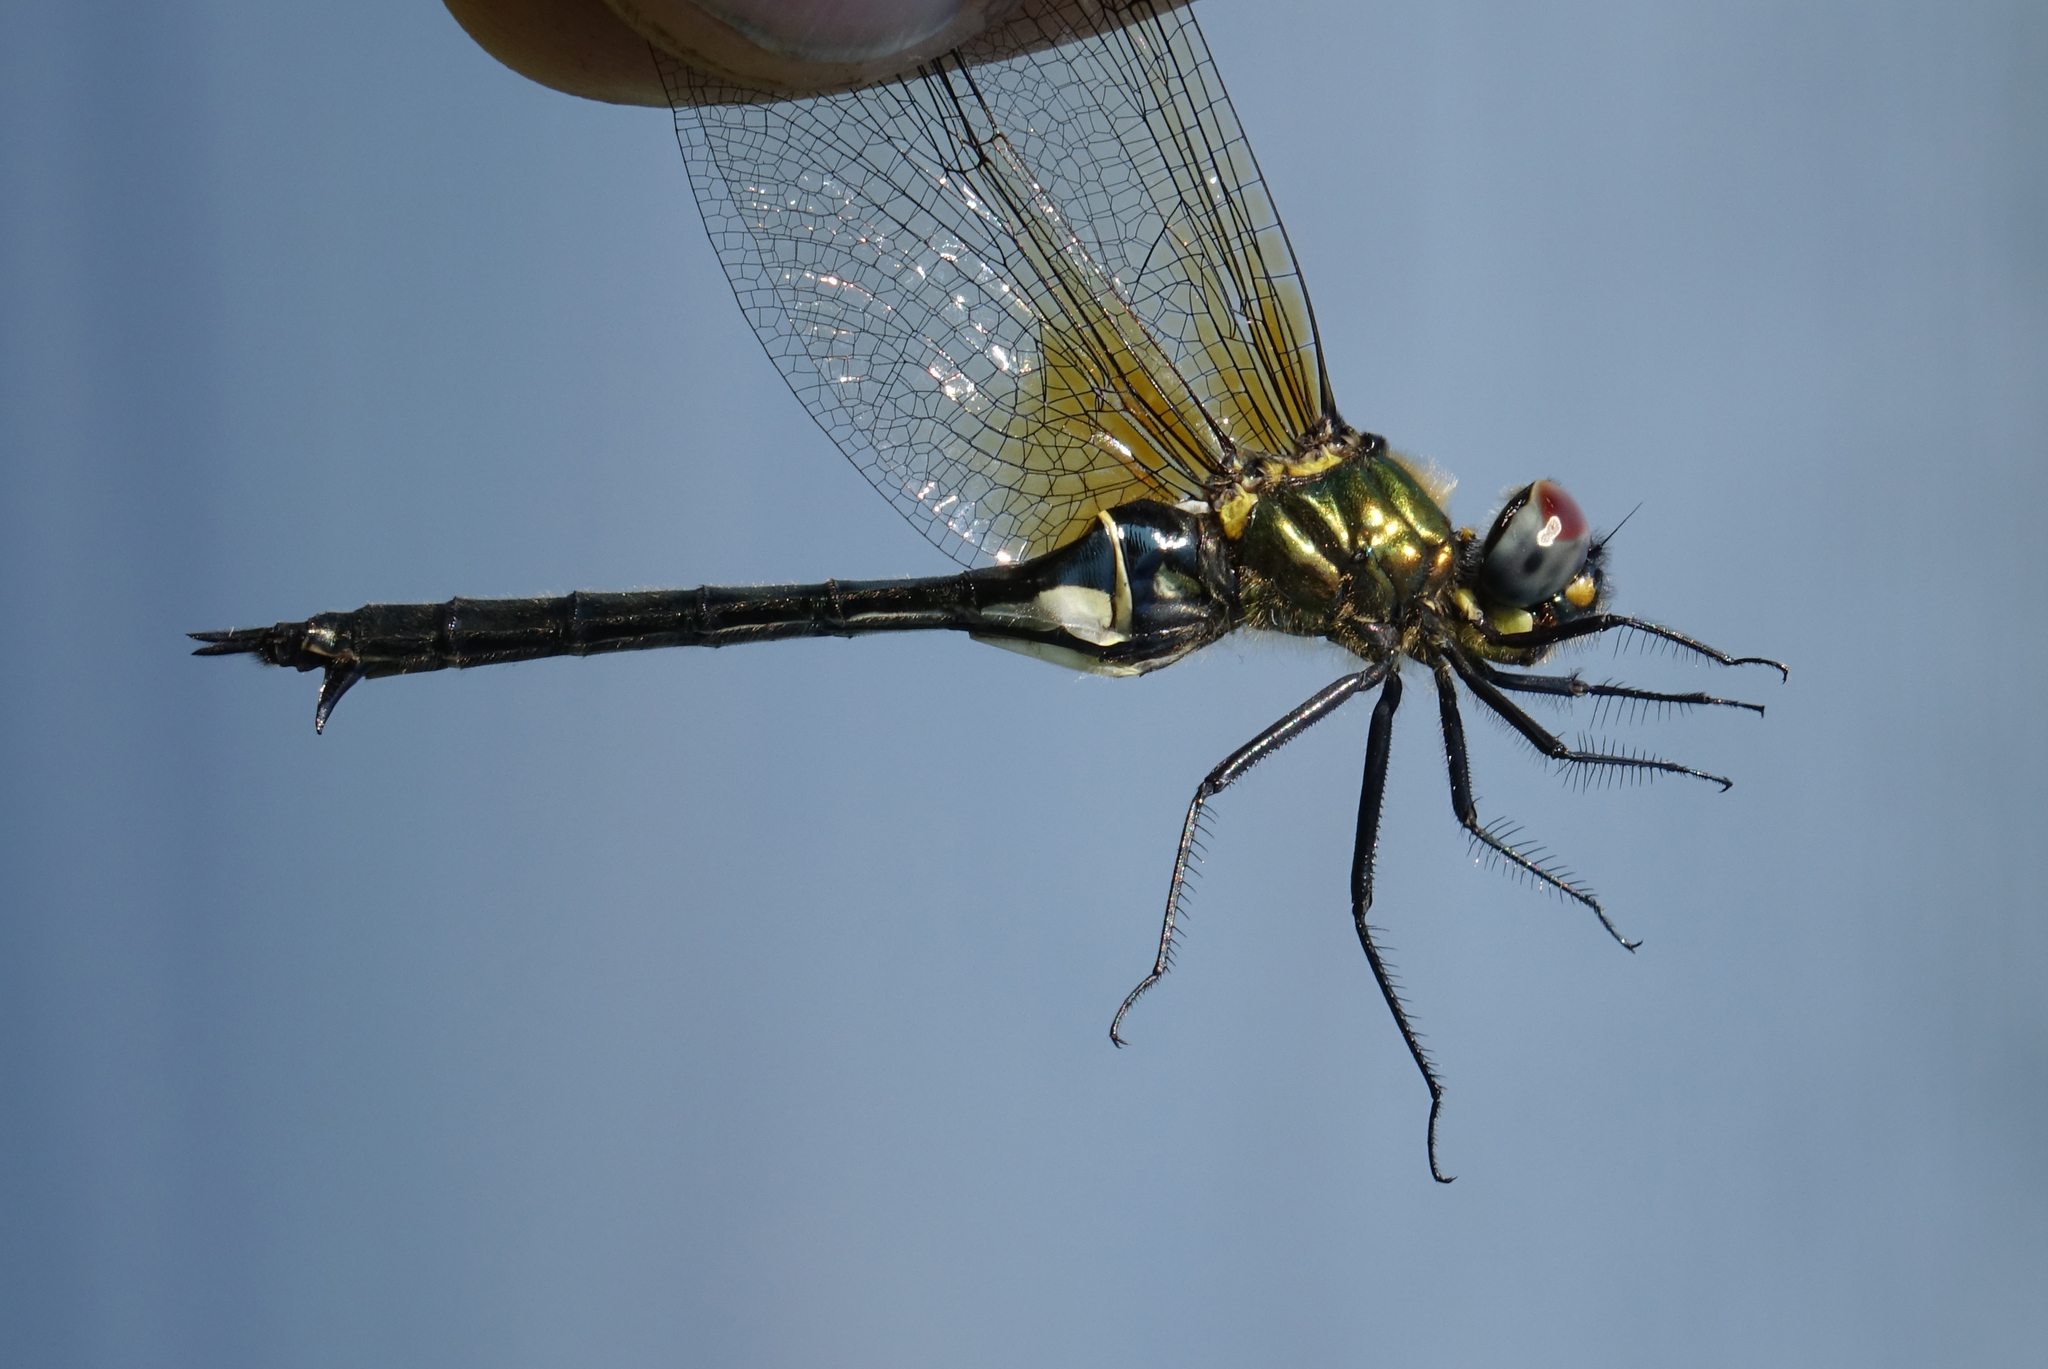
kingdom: Animalia
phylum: Arthropoda
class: Insecta
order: Odonata
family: Corduliidae
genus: Somatochlora
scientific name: Somatochlora exuberata
